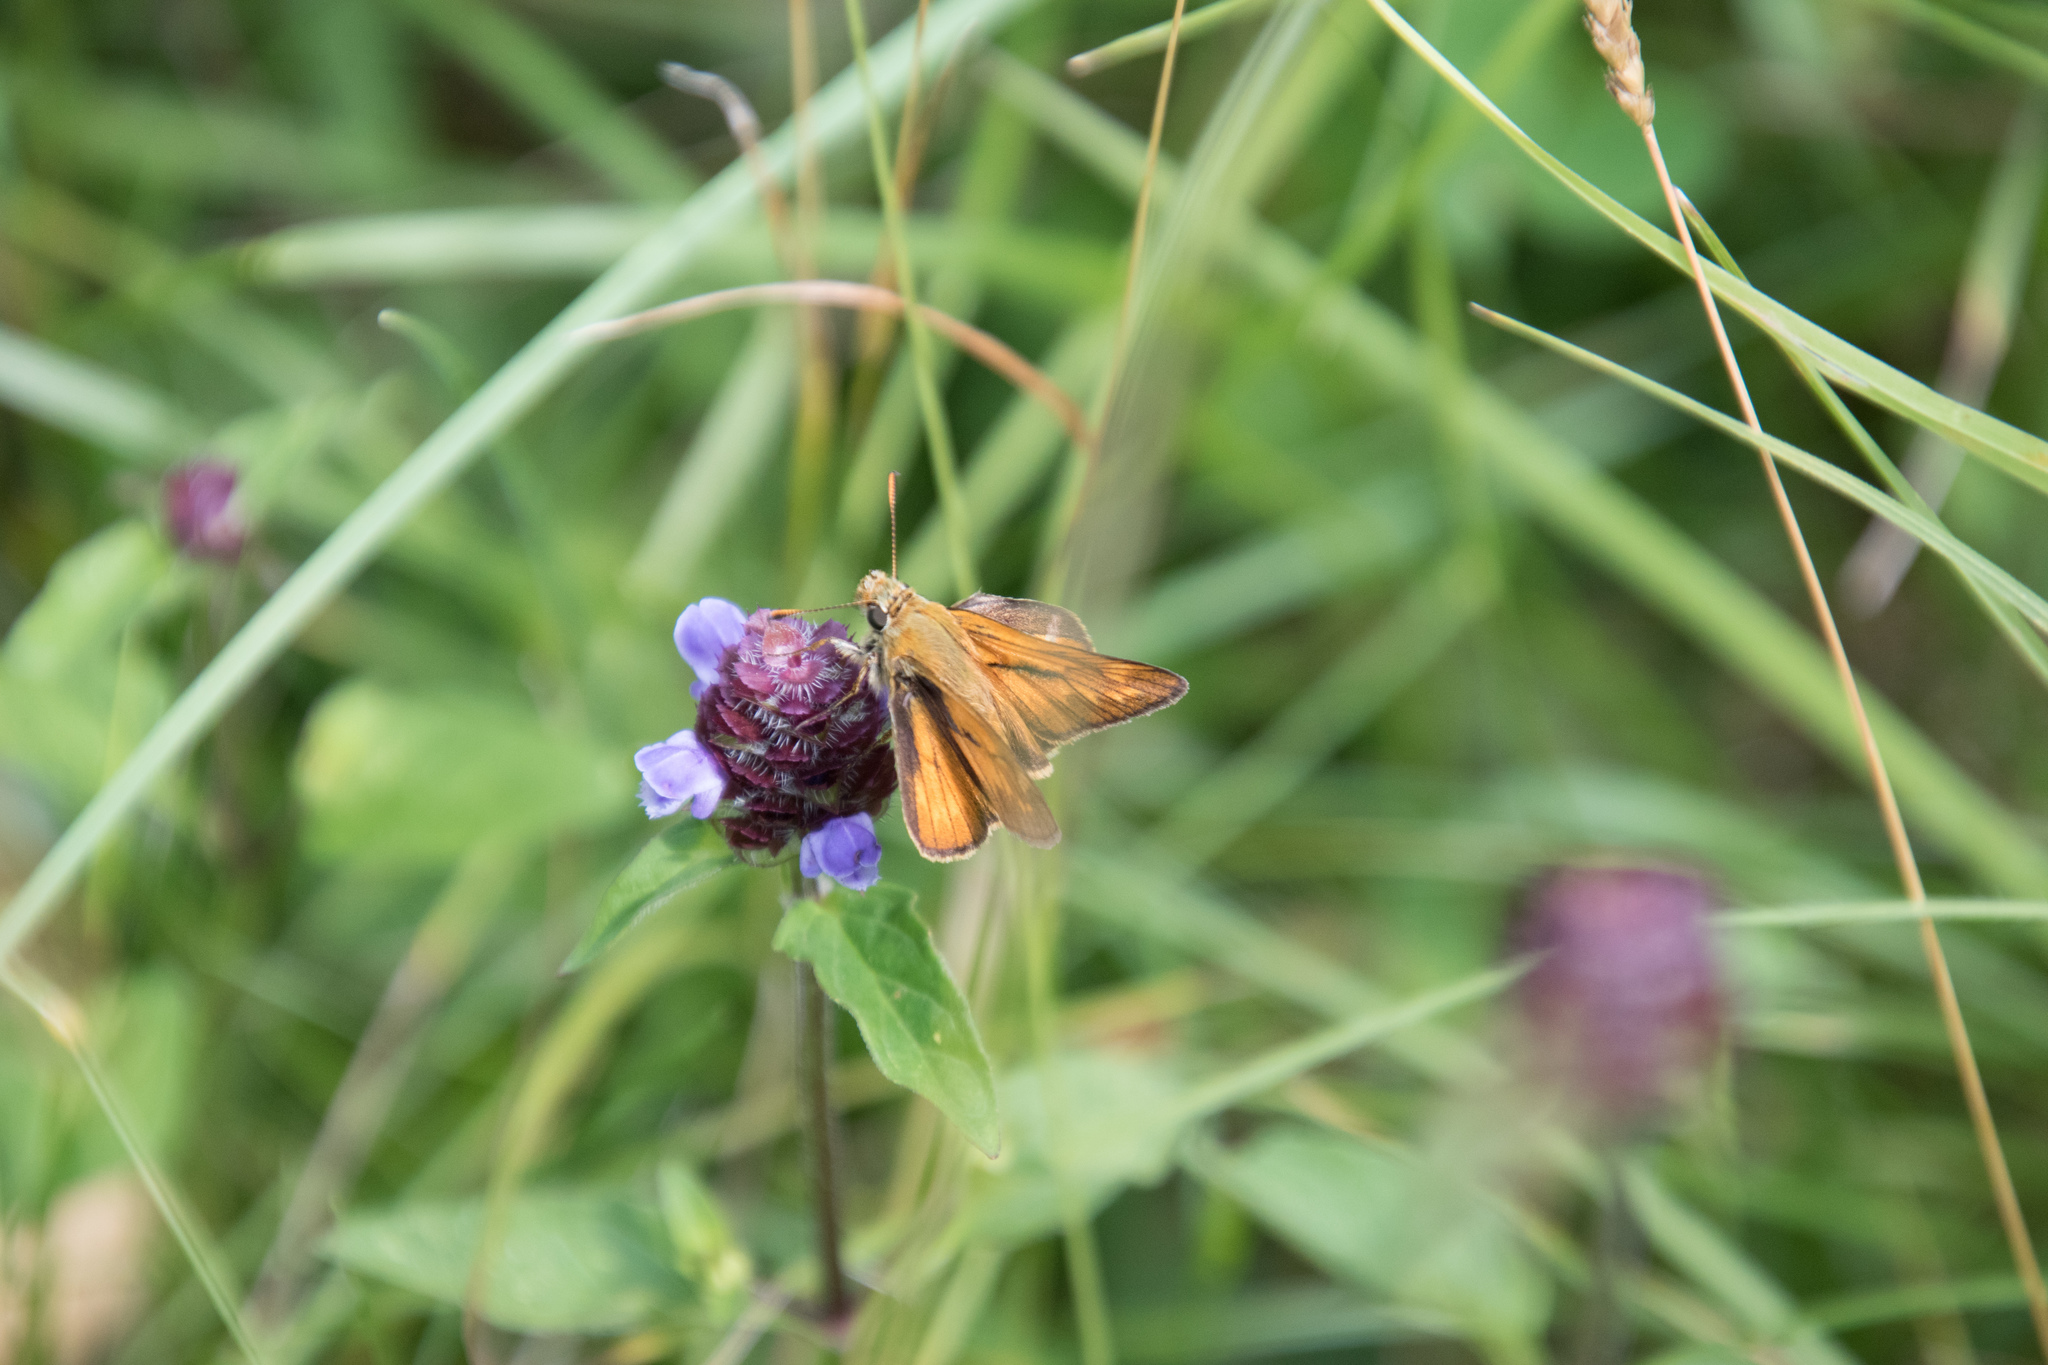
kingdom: Animalia
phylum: Arthropoda
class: Insecta
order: Lepidoptera
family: Hesperiidae
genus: Ochlodes
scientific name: Ochlodes venata
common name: Large skipper
